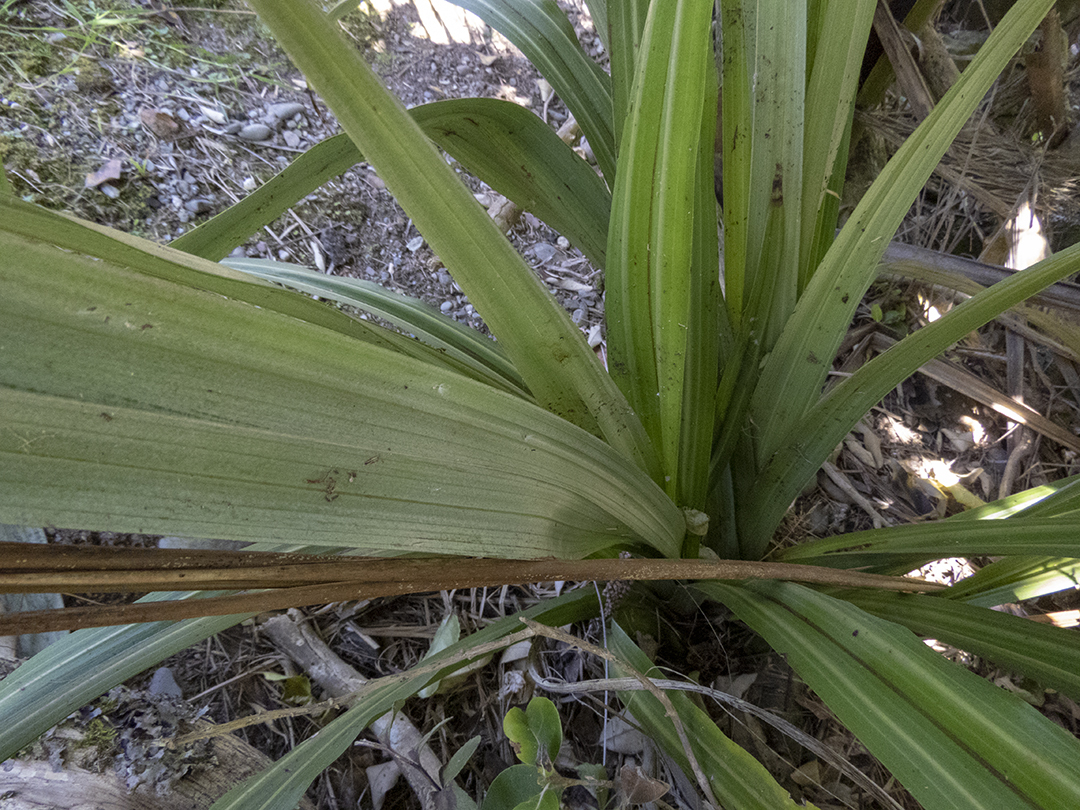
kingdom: Plantae
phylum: Tracheophyta
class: Liliopsida
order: Asparagales
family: Asteliaceae
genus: Astelia
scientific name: Astelia fragrans
